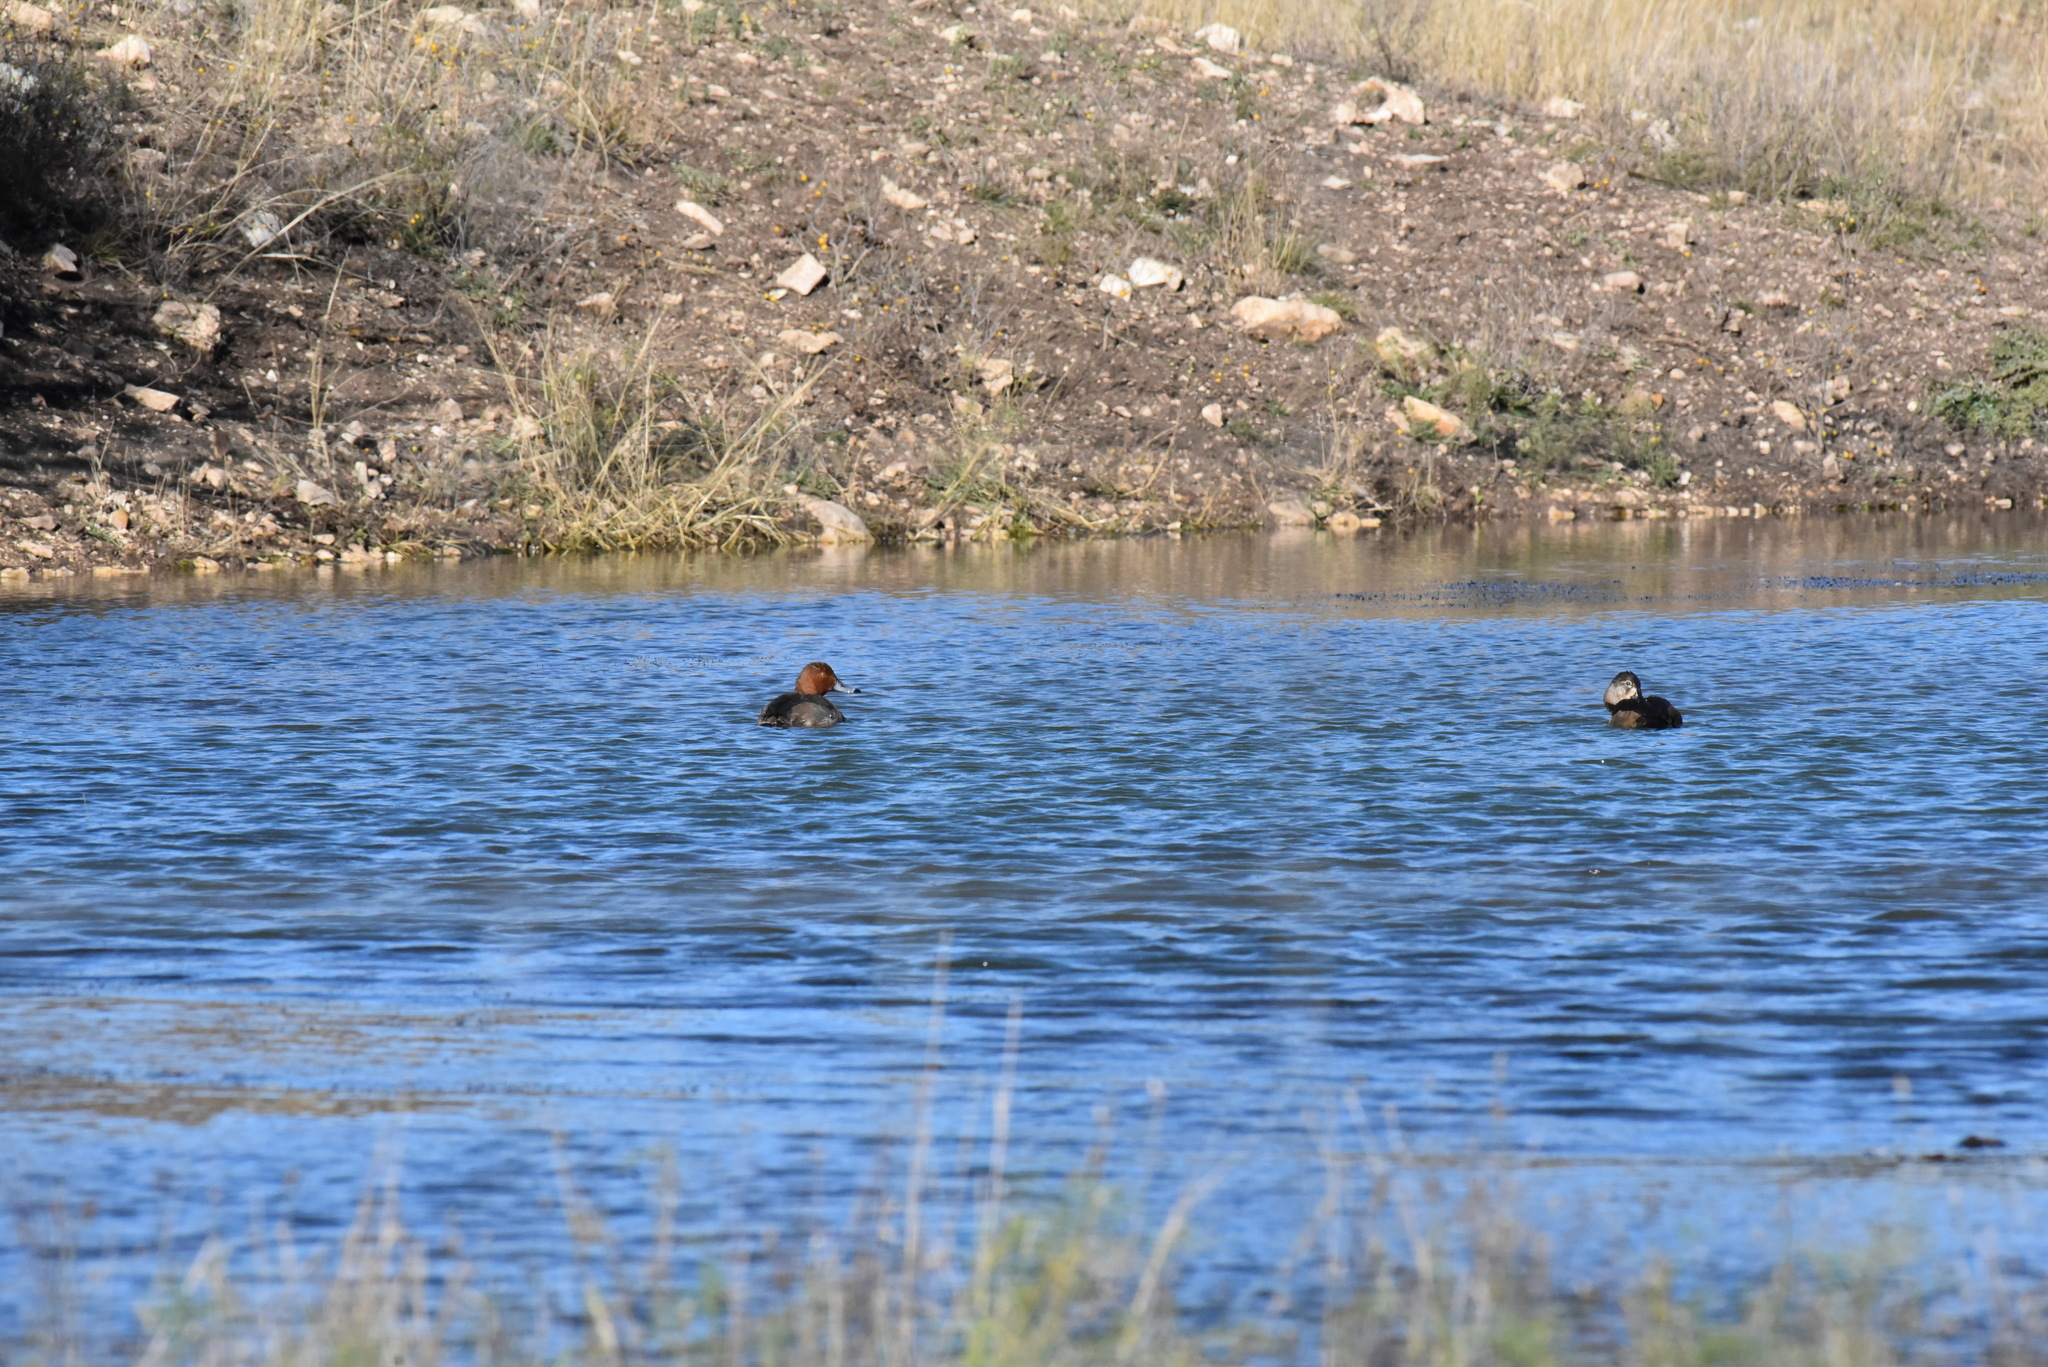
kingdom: Animalia
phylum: Chordata
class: Aves
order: Anseriformes
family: Anatidae
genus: Aythya
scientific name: Aythya americana
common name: Redhead
